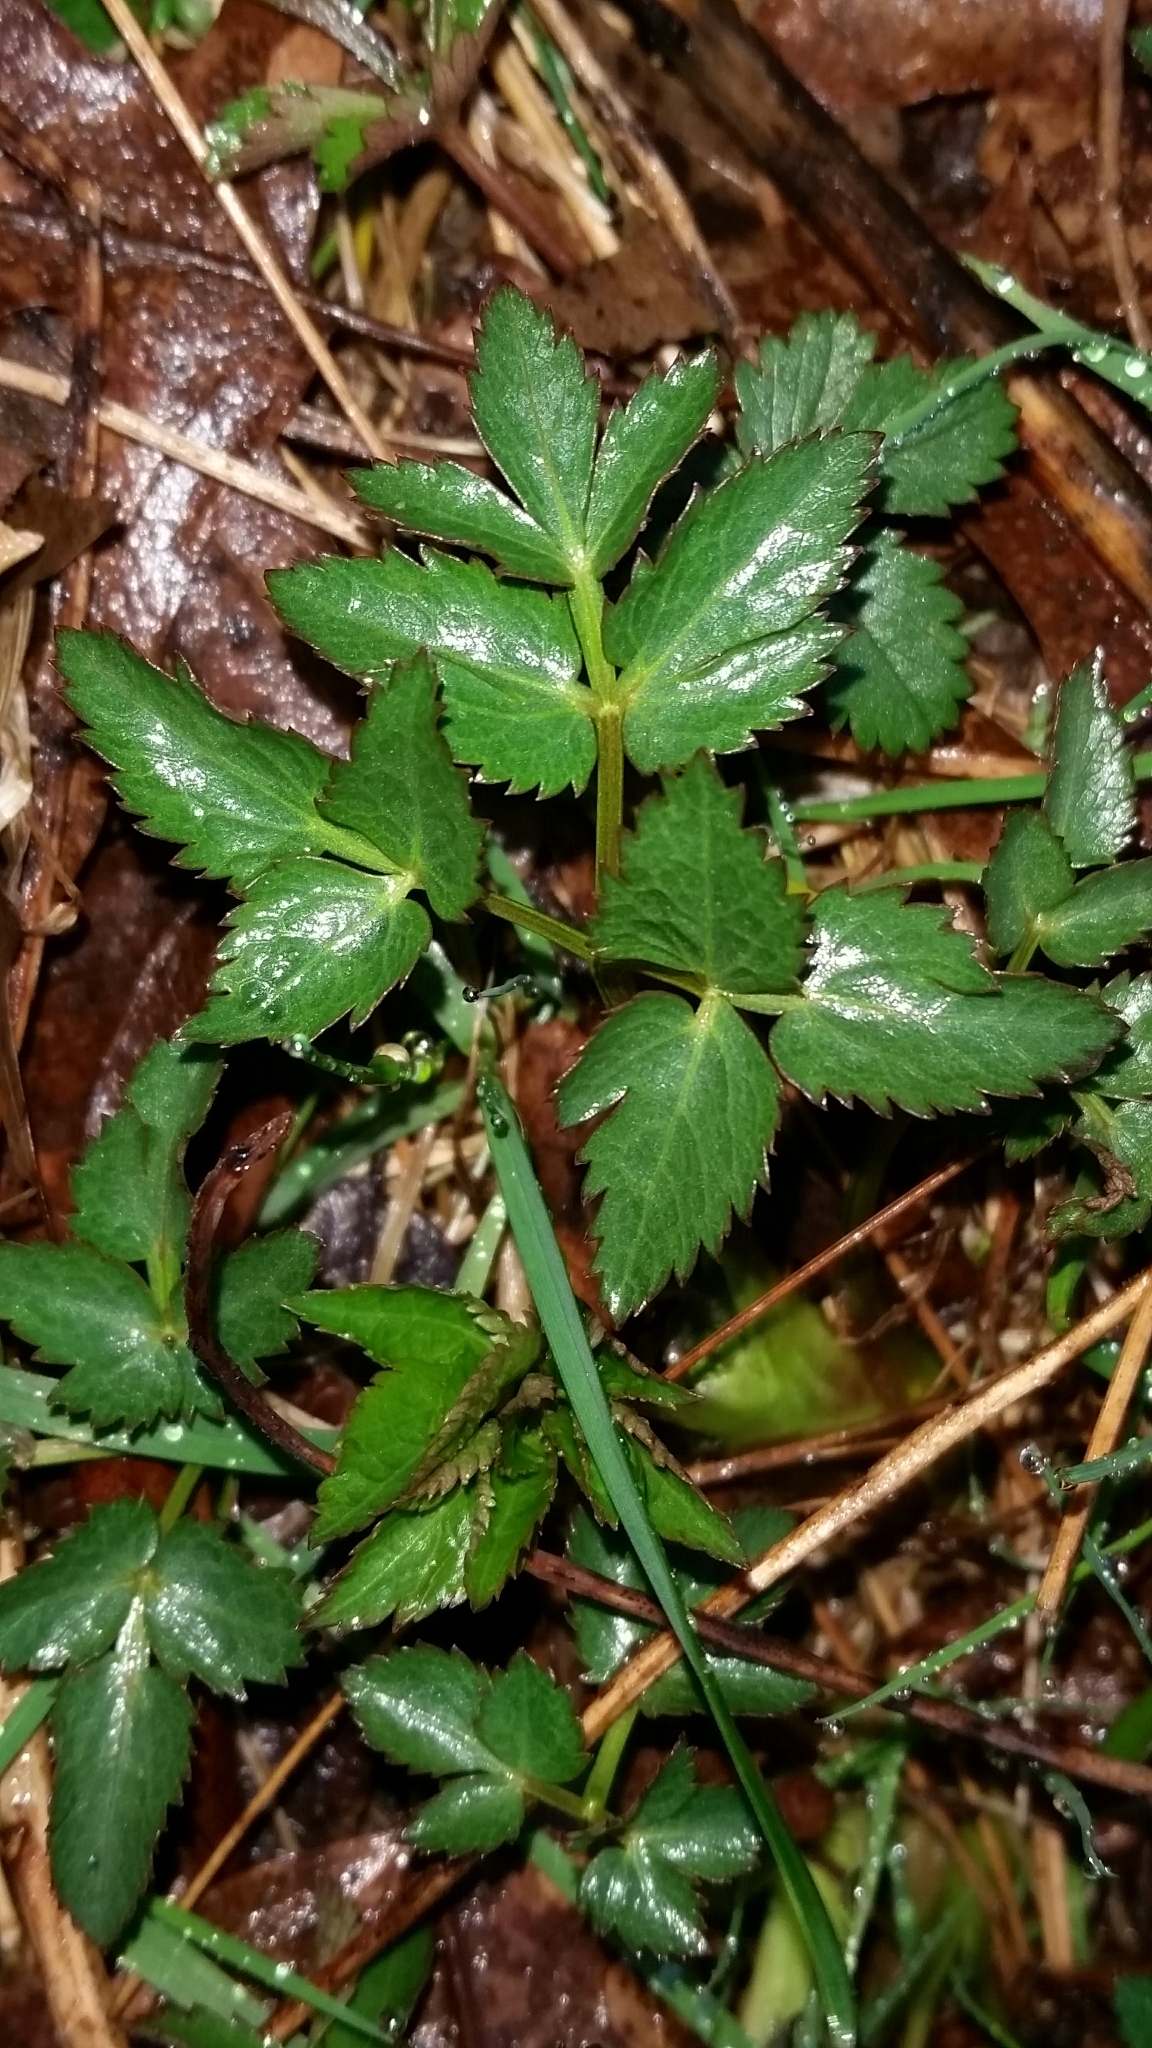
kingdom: Plantae
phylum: Tracheophyta
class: Magnoliopsida
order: Apiales
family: Apiaceae
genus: Zizia
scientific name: Zizia aurea
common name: Golden alexanders
